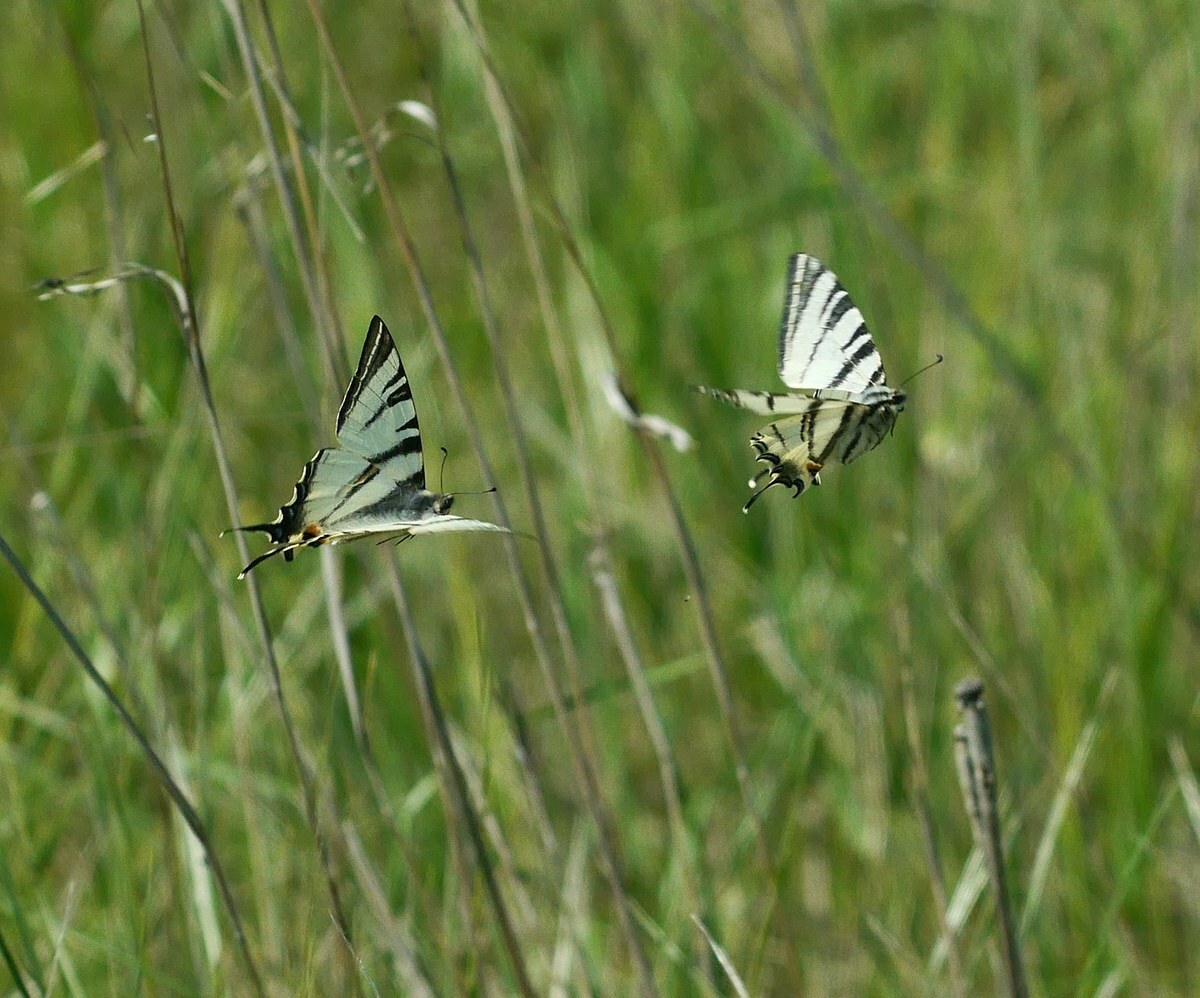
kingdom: Animalia
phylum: Arthropoda
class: Insecta
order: Lepidoptera
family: Papilionidae
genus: Iphiclides
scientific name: Iphiclides podalirius
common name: Scarce swallowtail
